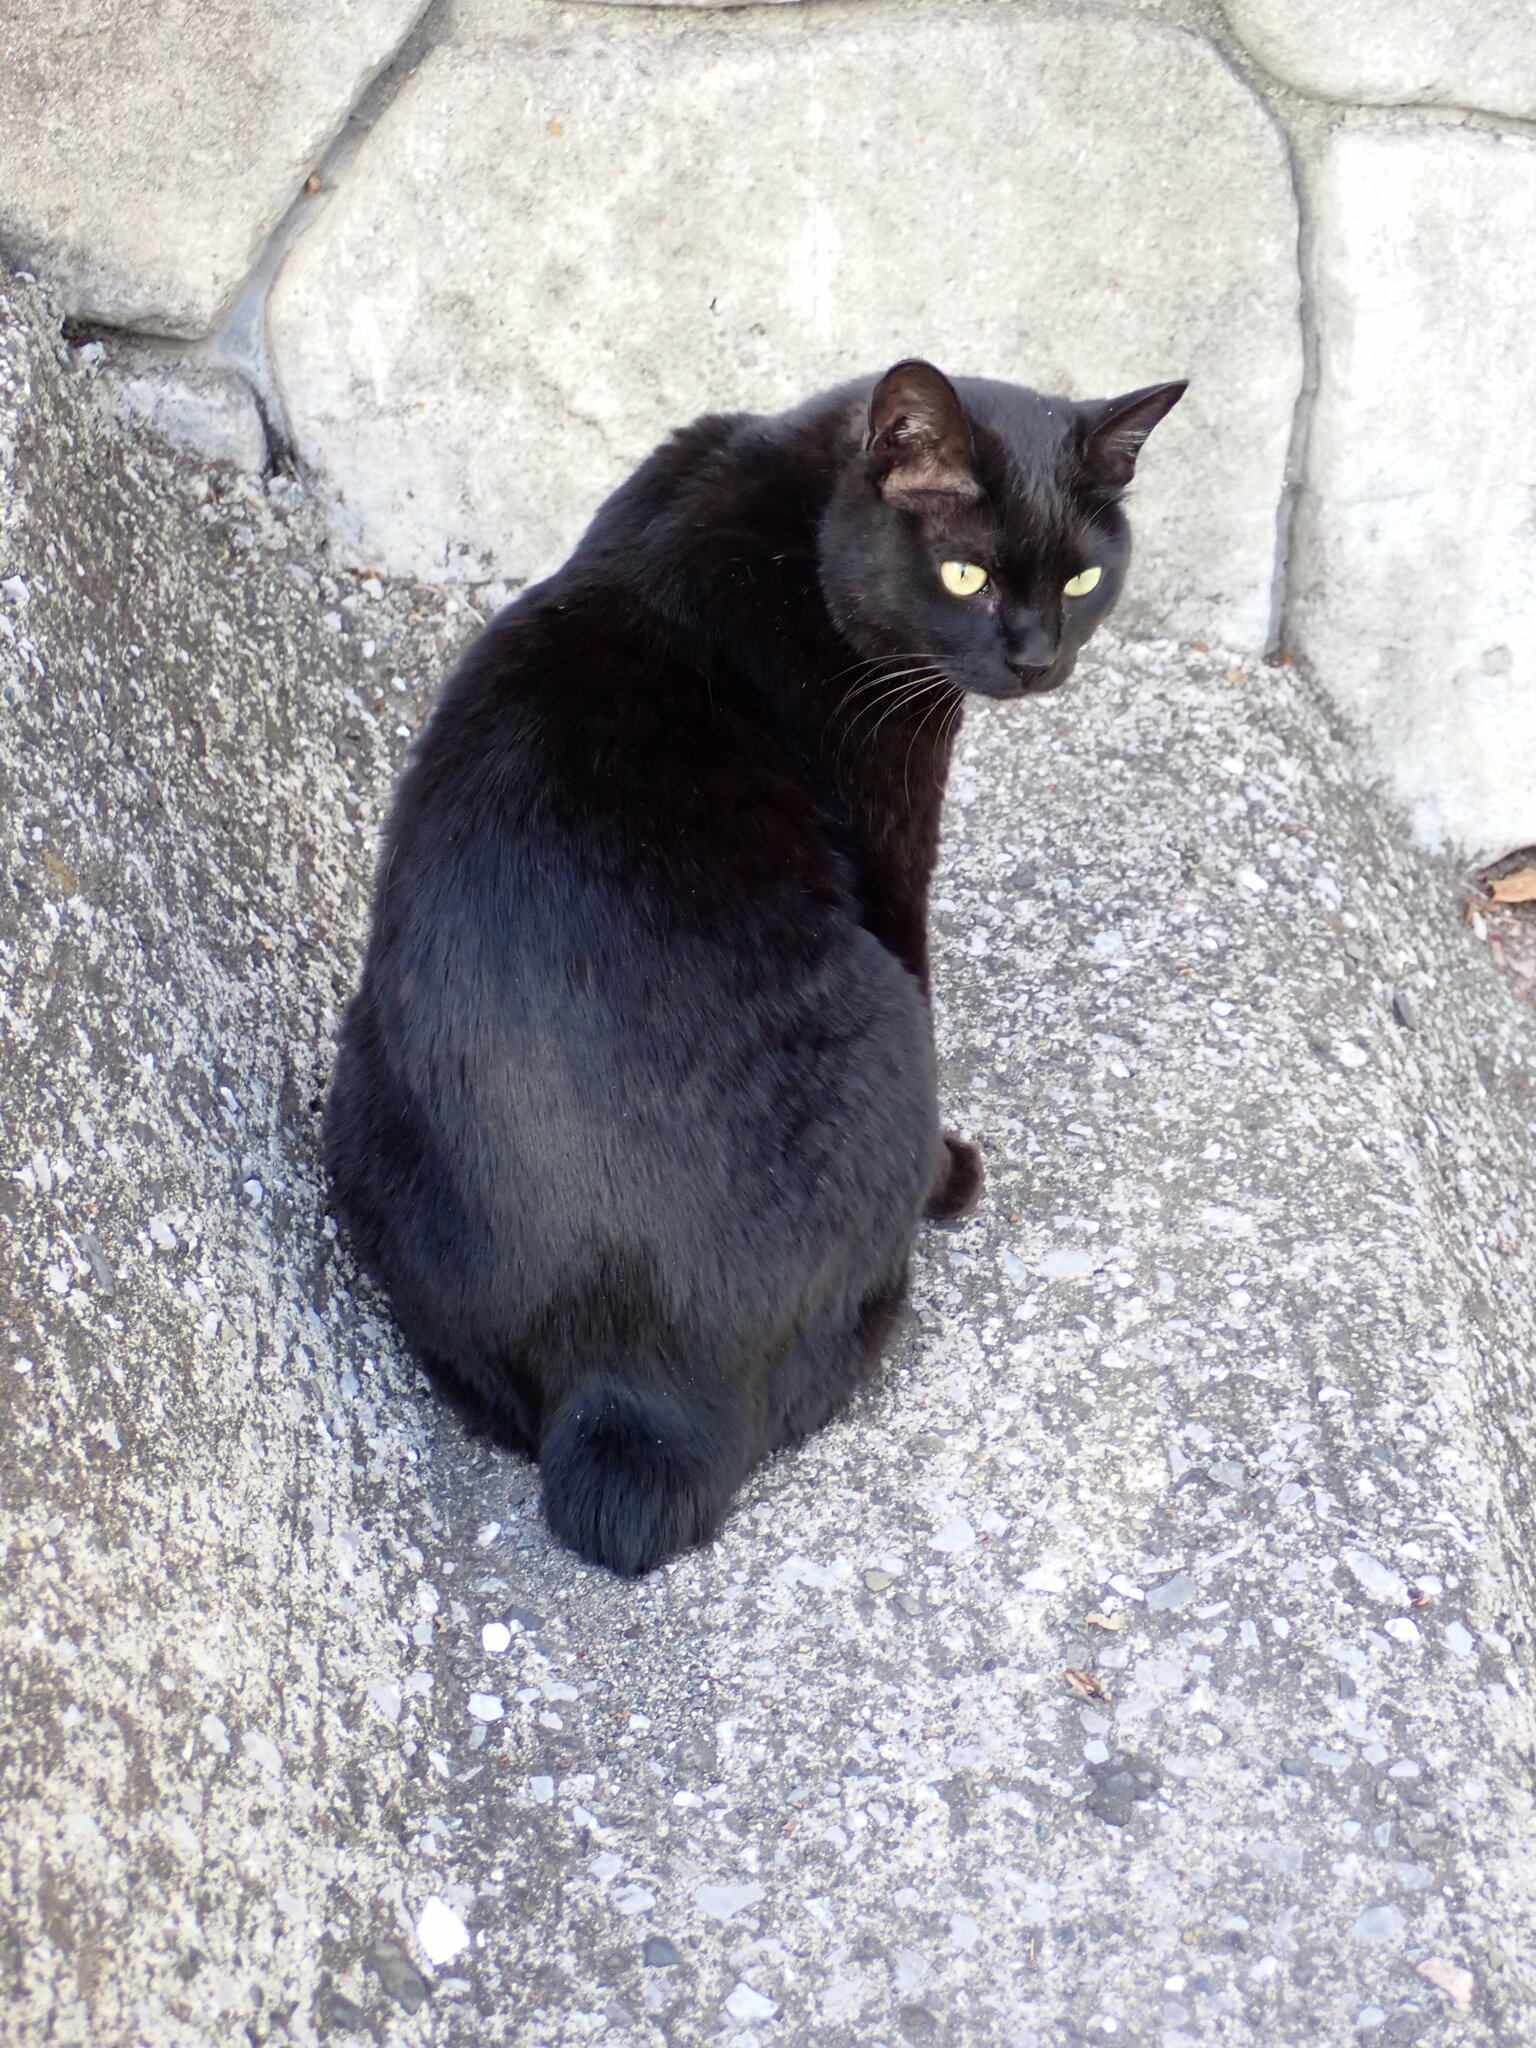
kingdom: Animalia
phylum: Chordata
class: Mammalia
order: Carnivora
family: Felidae
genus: Felis
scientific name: Felis catus
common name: Domestic cat
